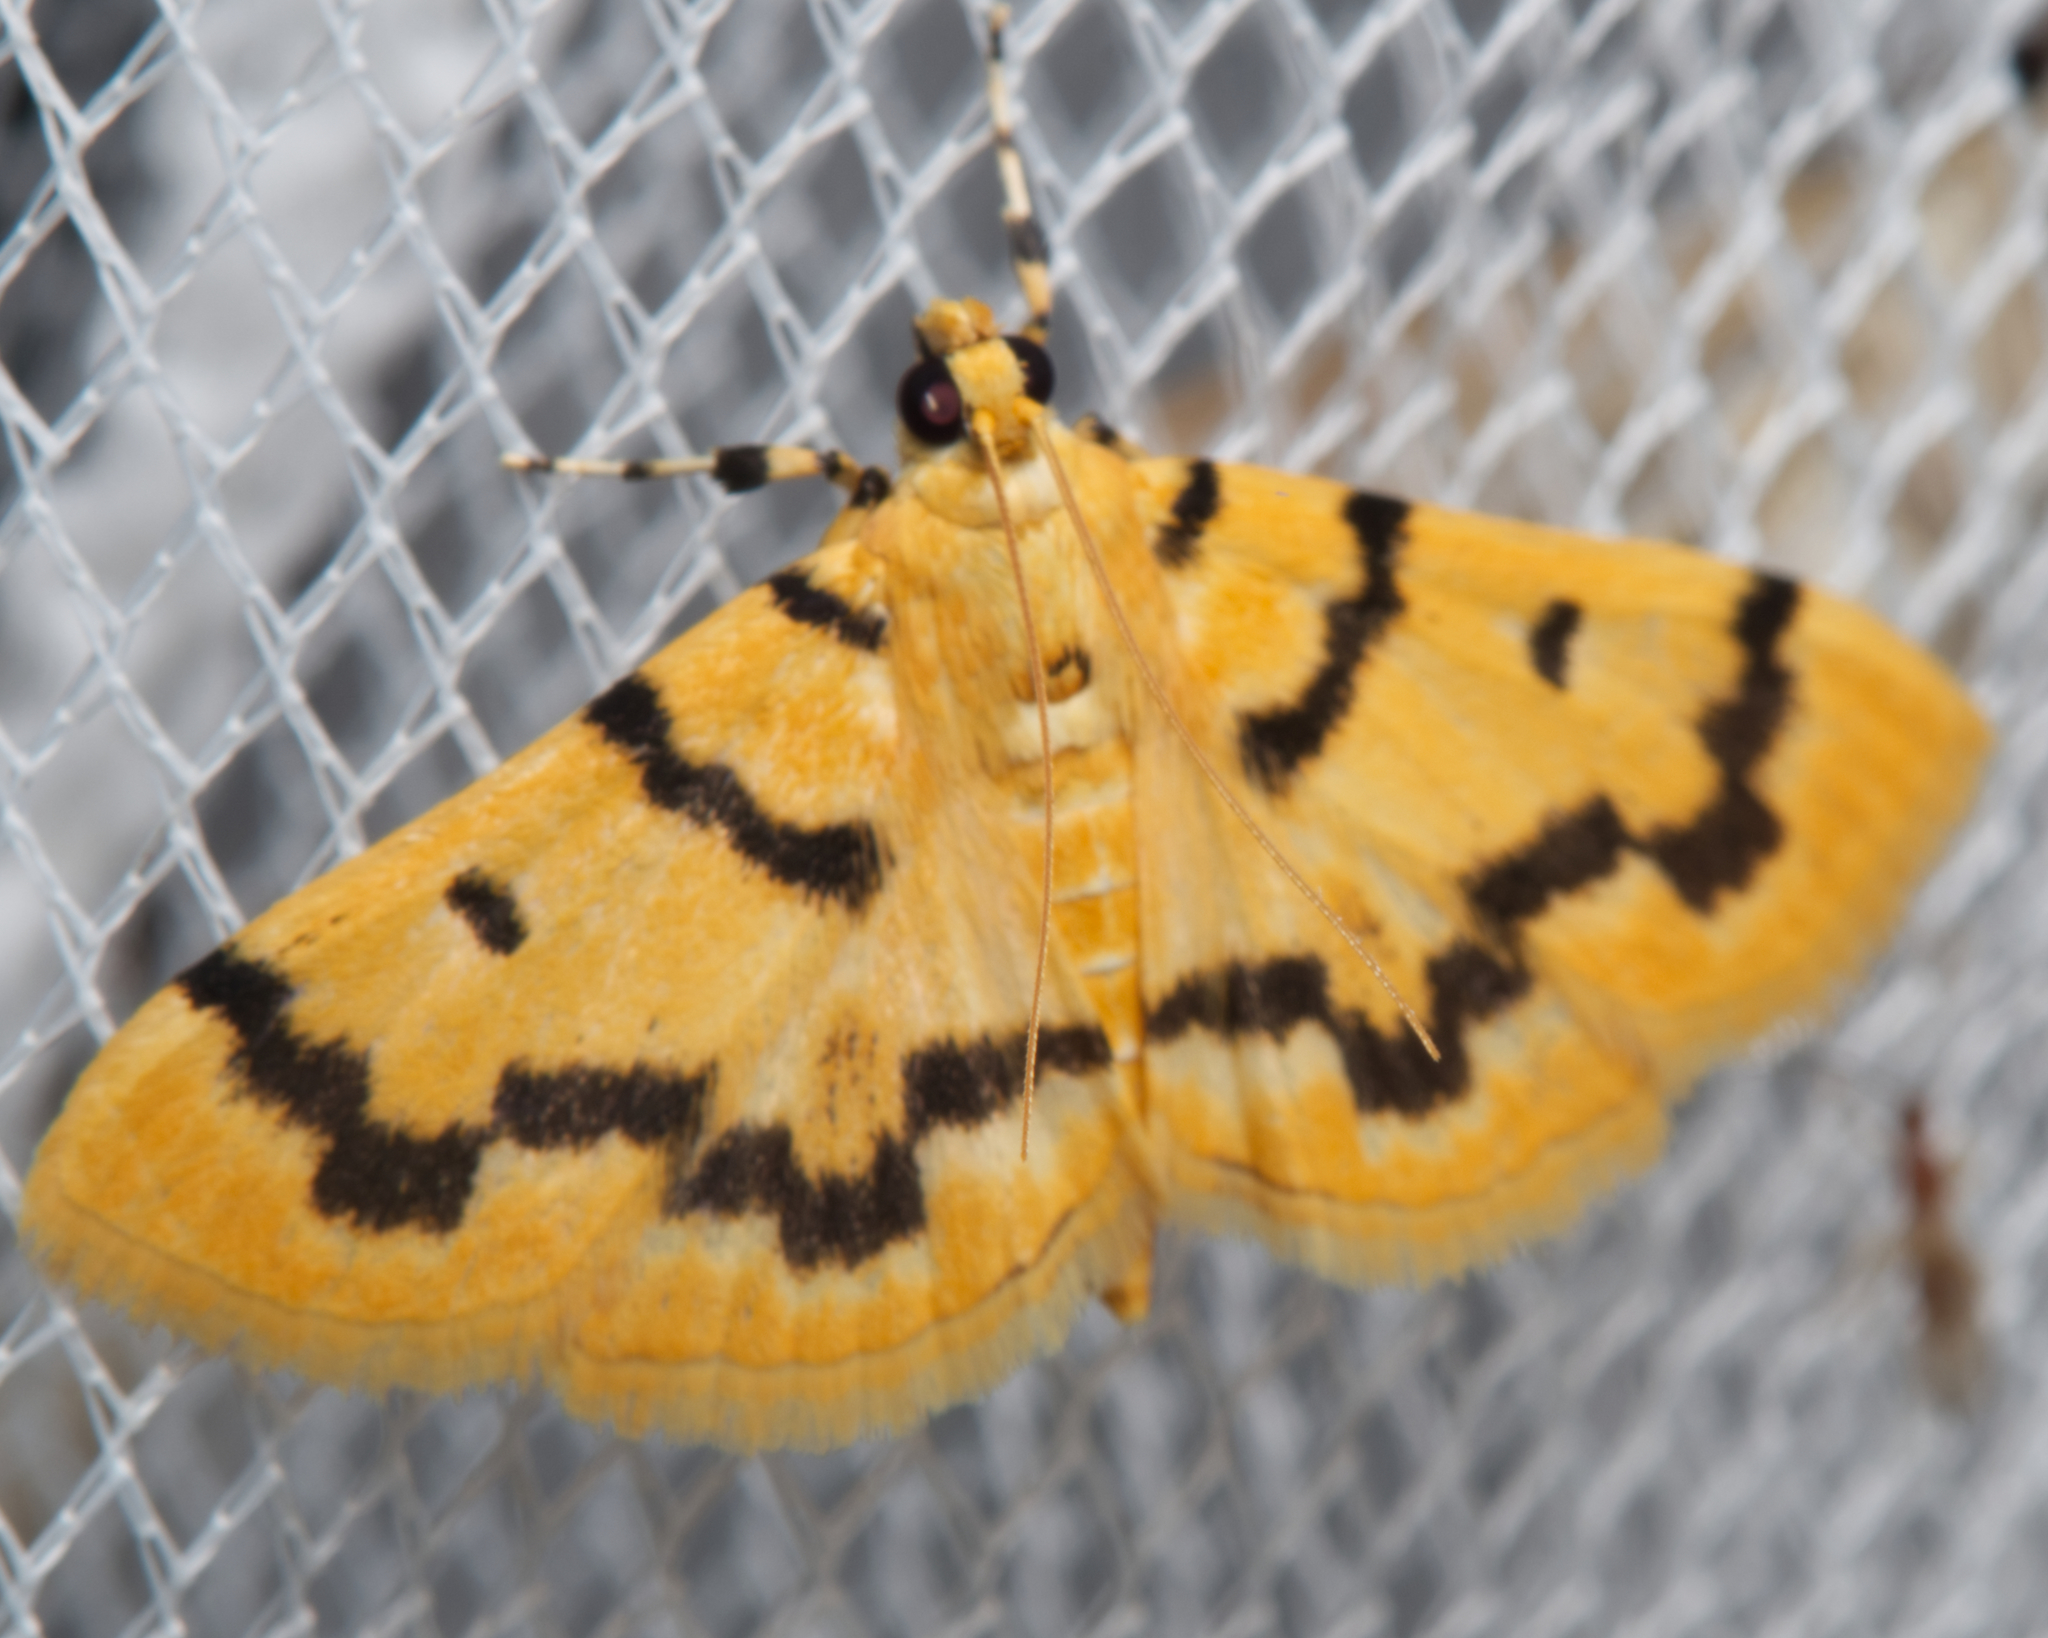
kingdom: Animalia
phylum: Arthropoda
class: Insecta
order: Lepidoptera
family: Crambidae
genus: Dichocrocis
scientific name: Dichocrocis clytusalis
